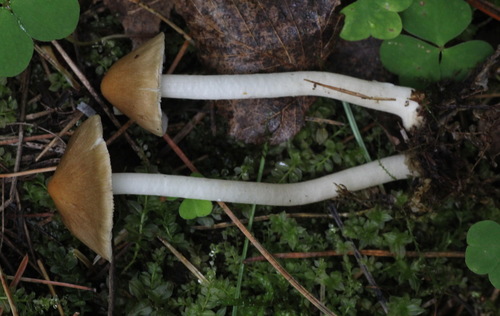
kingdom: Fungi
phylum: Basidiomycota
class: Agaricomycetes
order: Agaricales
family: Inocybaceae
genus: Inocybe
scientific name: Inocybe mixtilis
